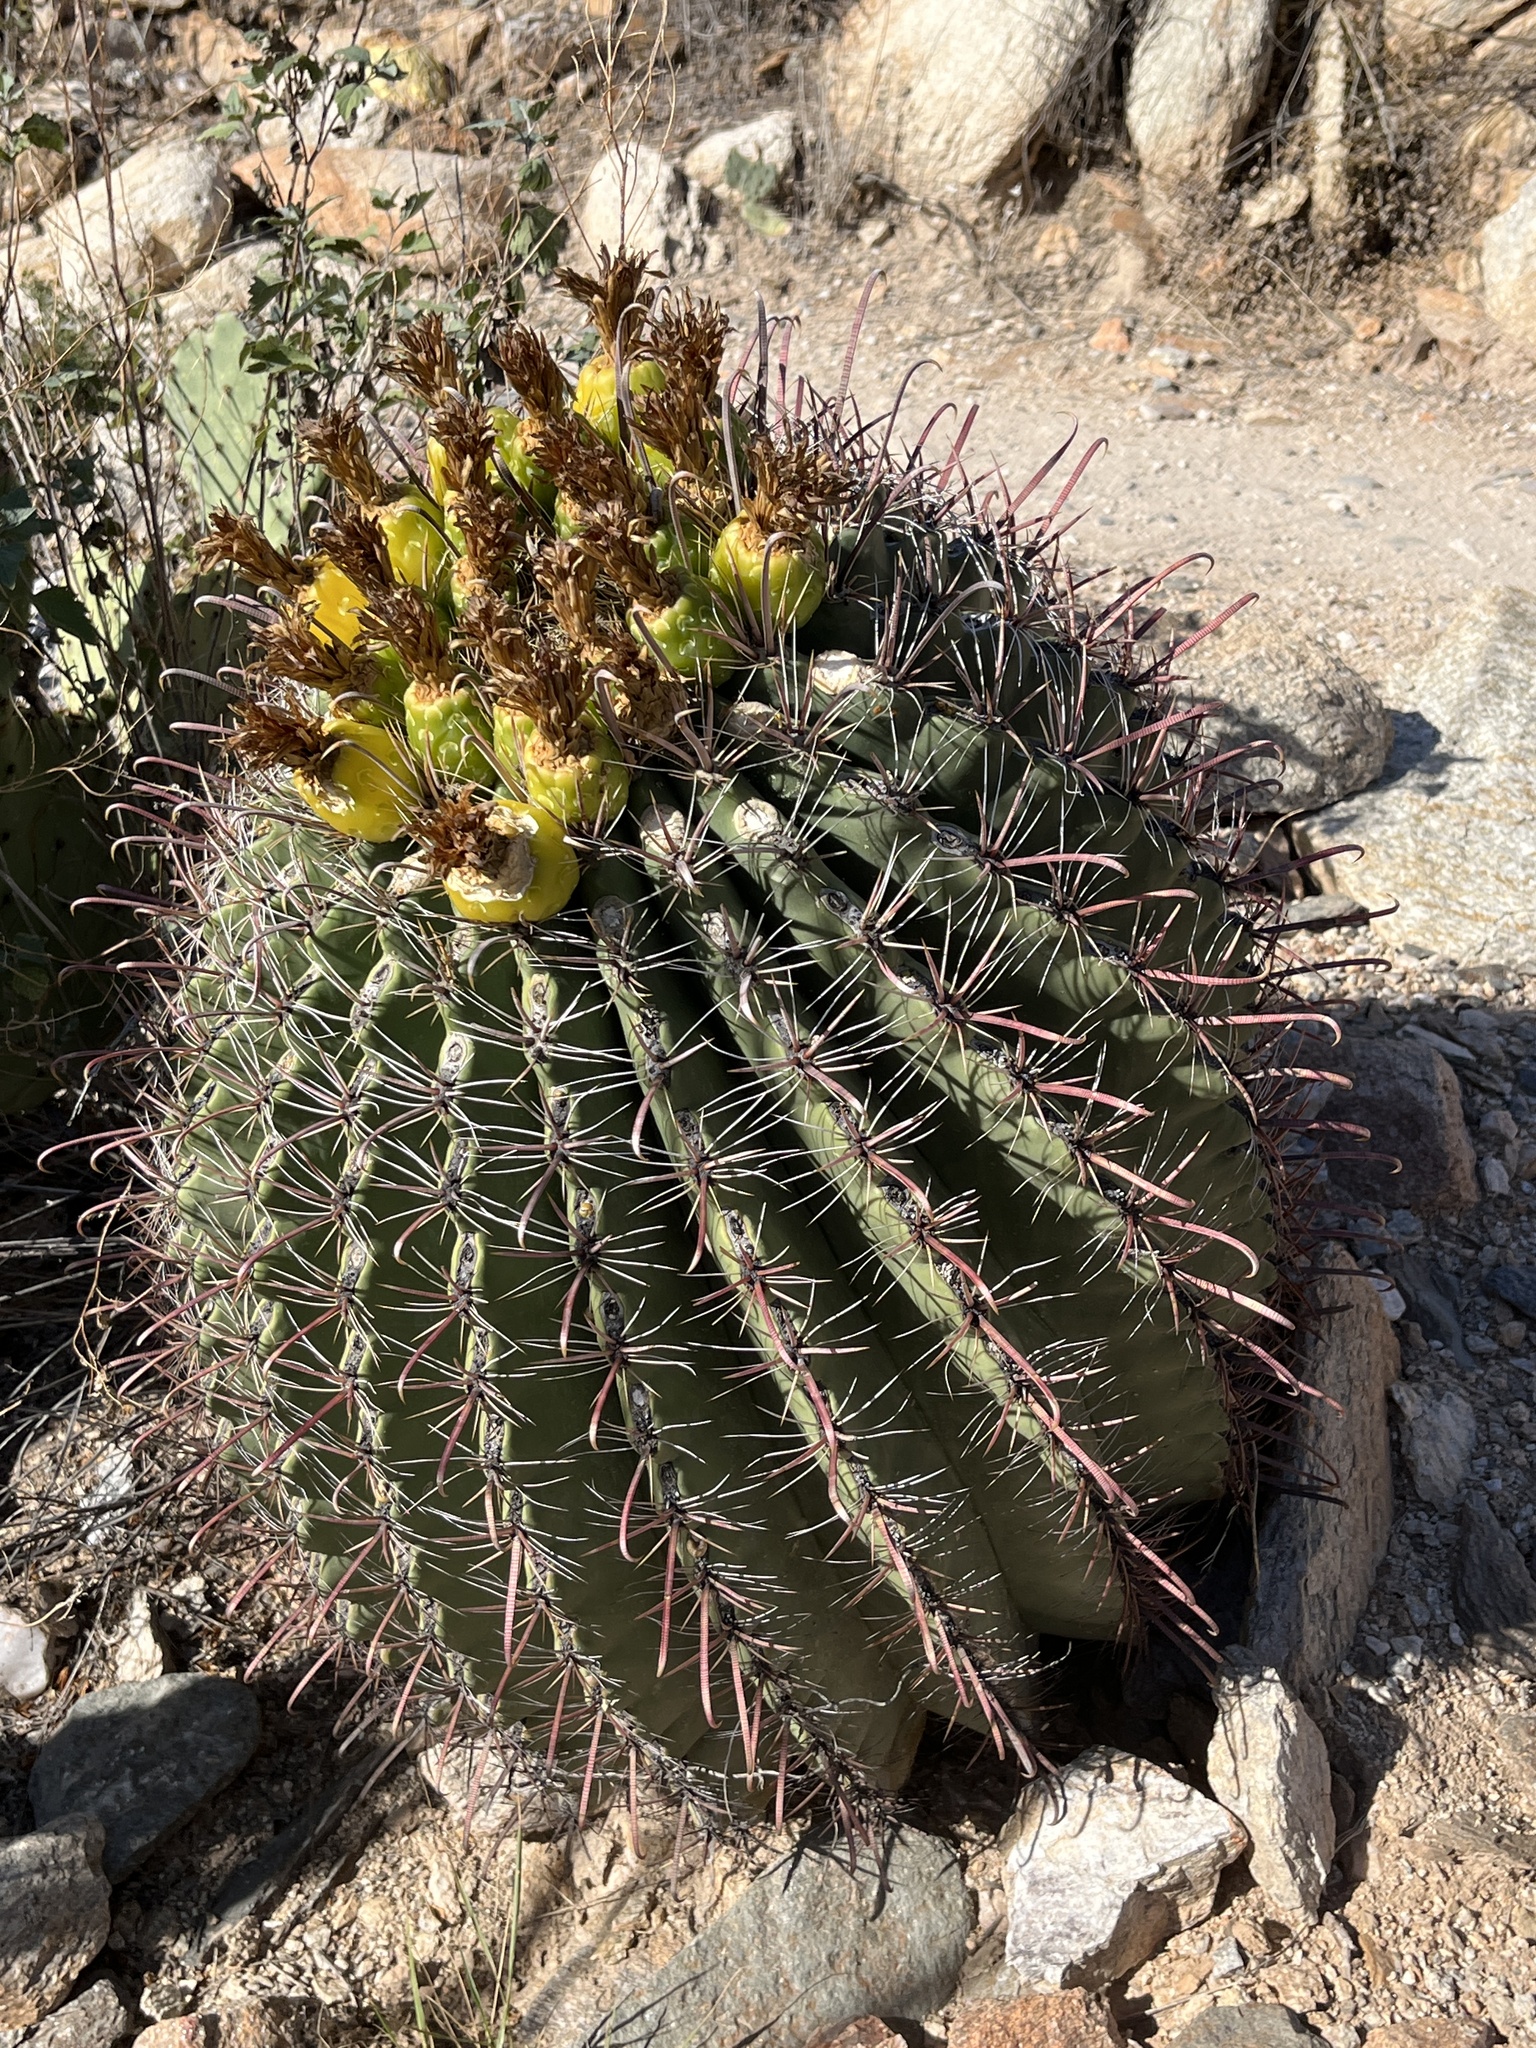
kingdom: Plantae
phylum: Tracheophyta
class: Magnoliopsida
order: Caryophyllales
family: Cactaceae
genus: Ferocactus
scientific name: Ferocactus wislizeni
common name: Candy barrel cactus
